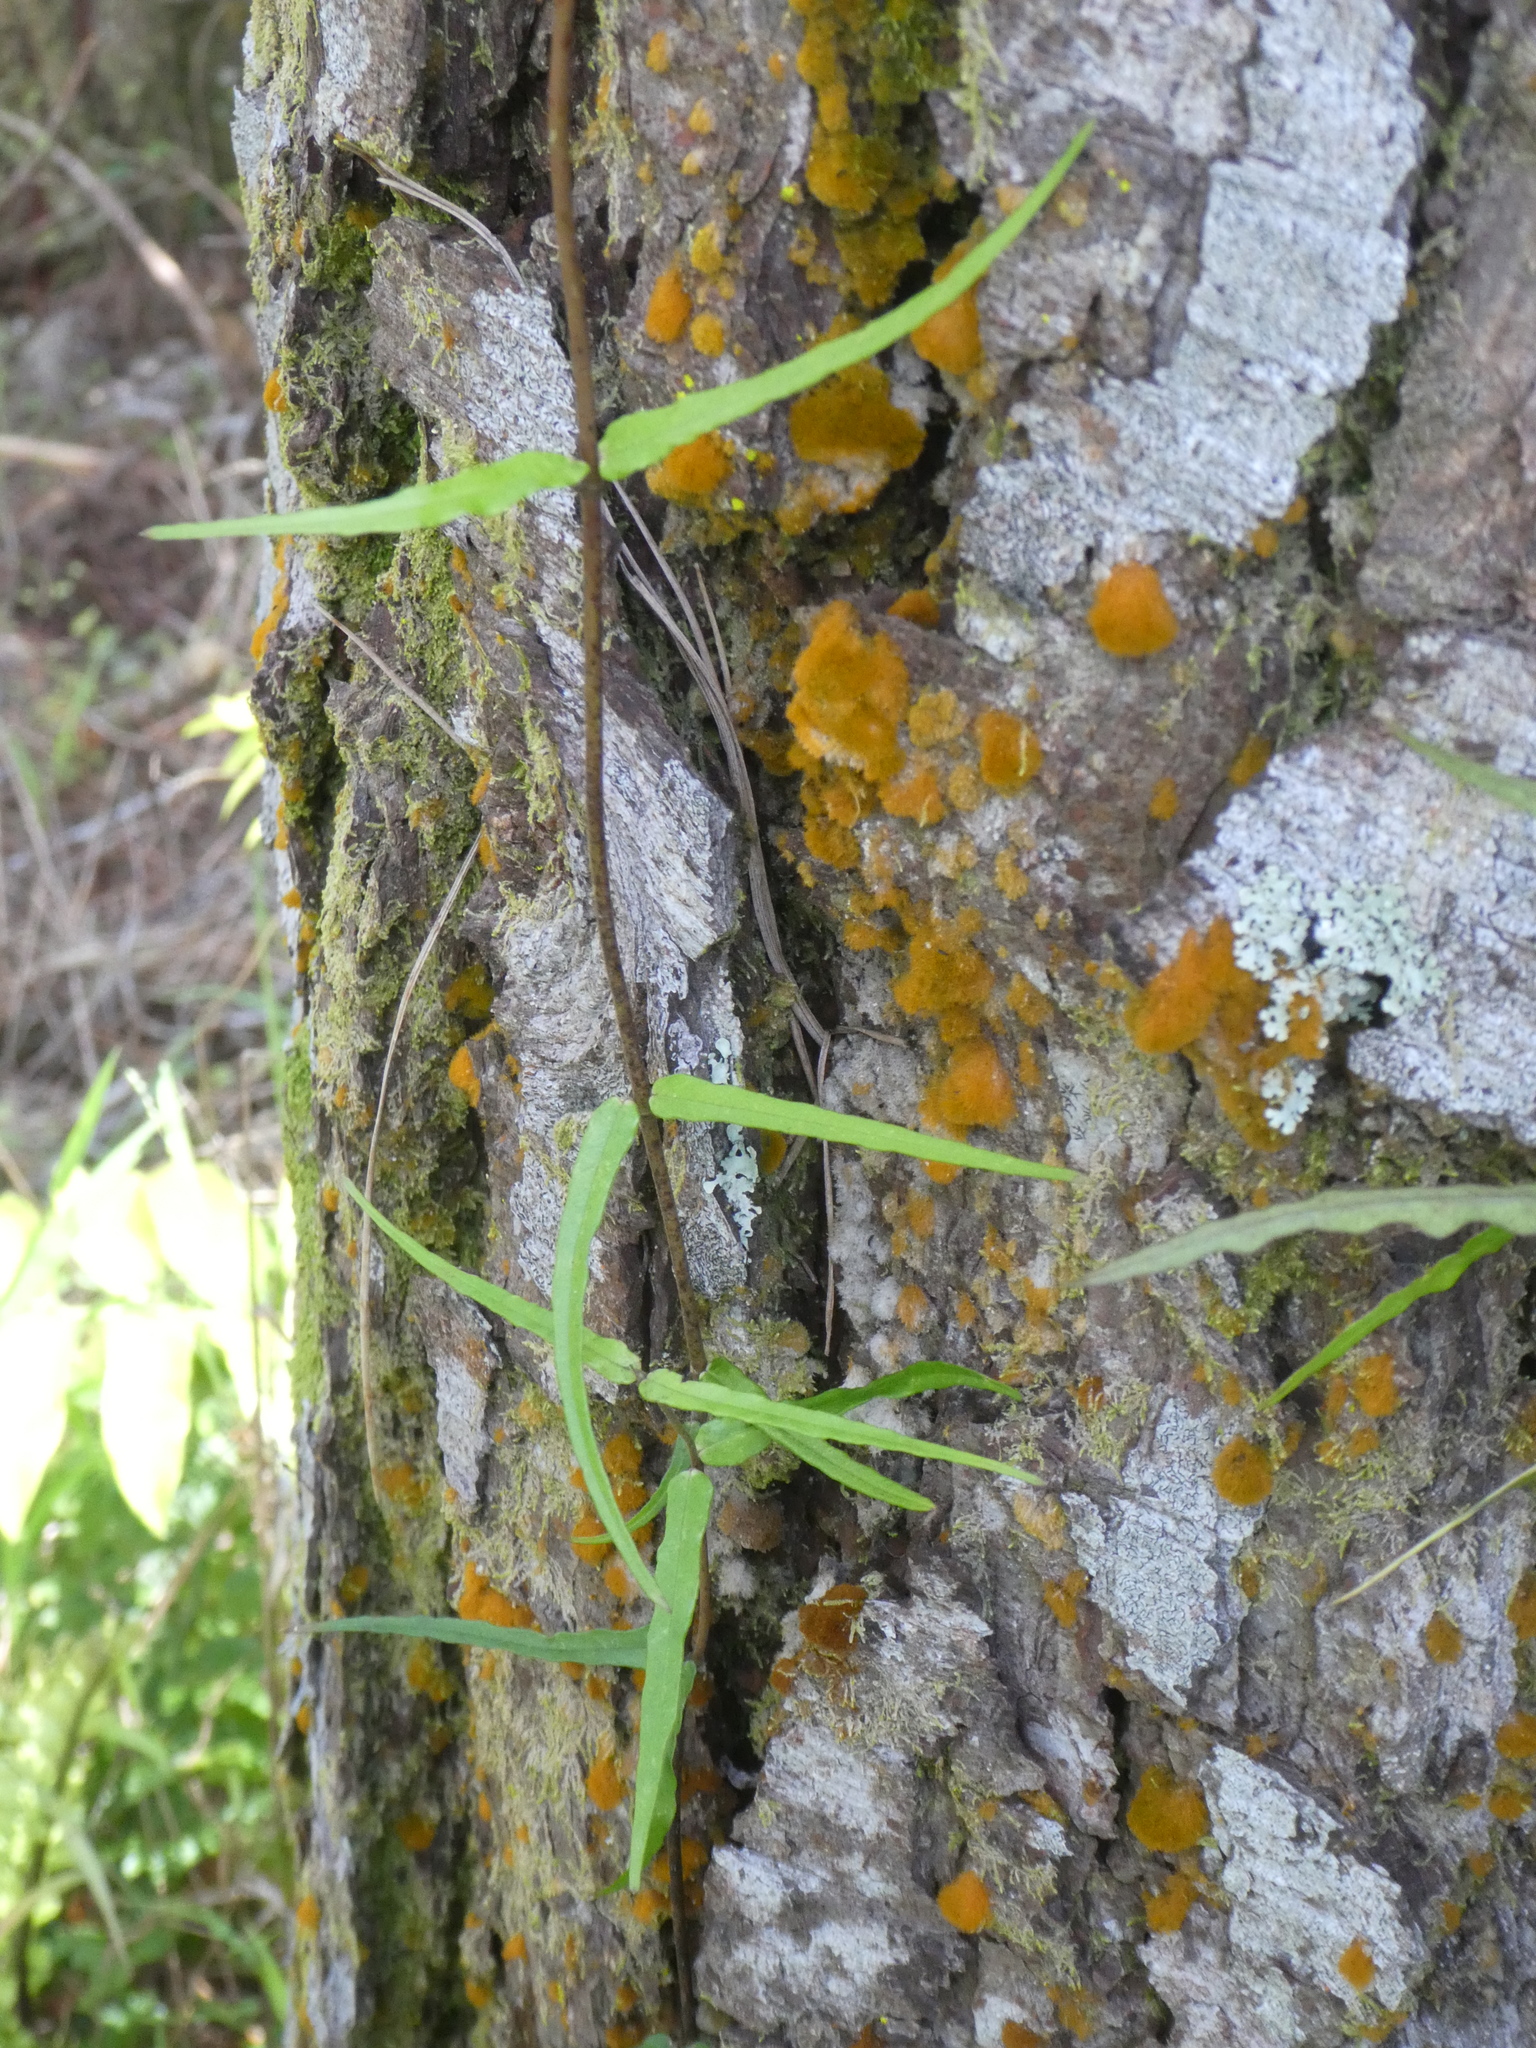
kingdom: Plantae
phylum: Tracheophyta
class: Magnoliopsida
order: Gentianales
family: Apocynaceae
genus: Parsonsia
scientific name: Parsonsia heterophylla
